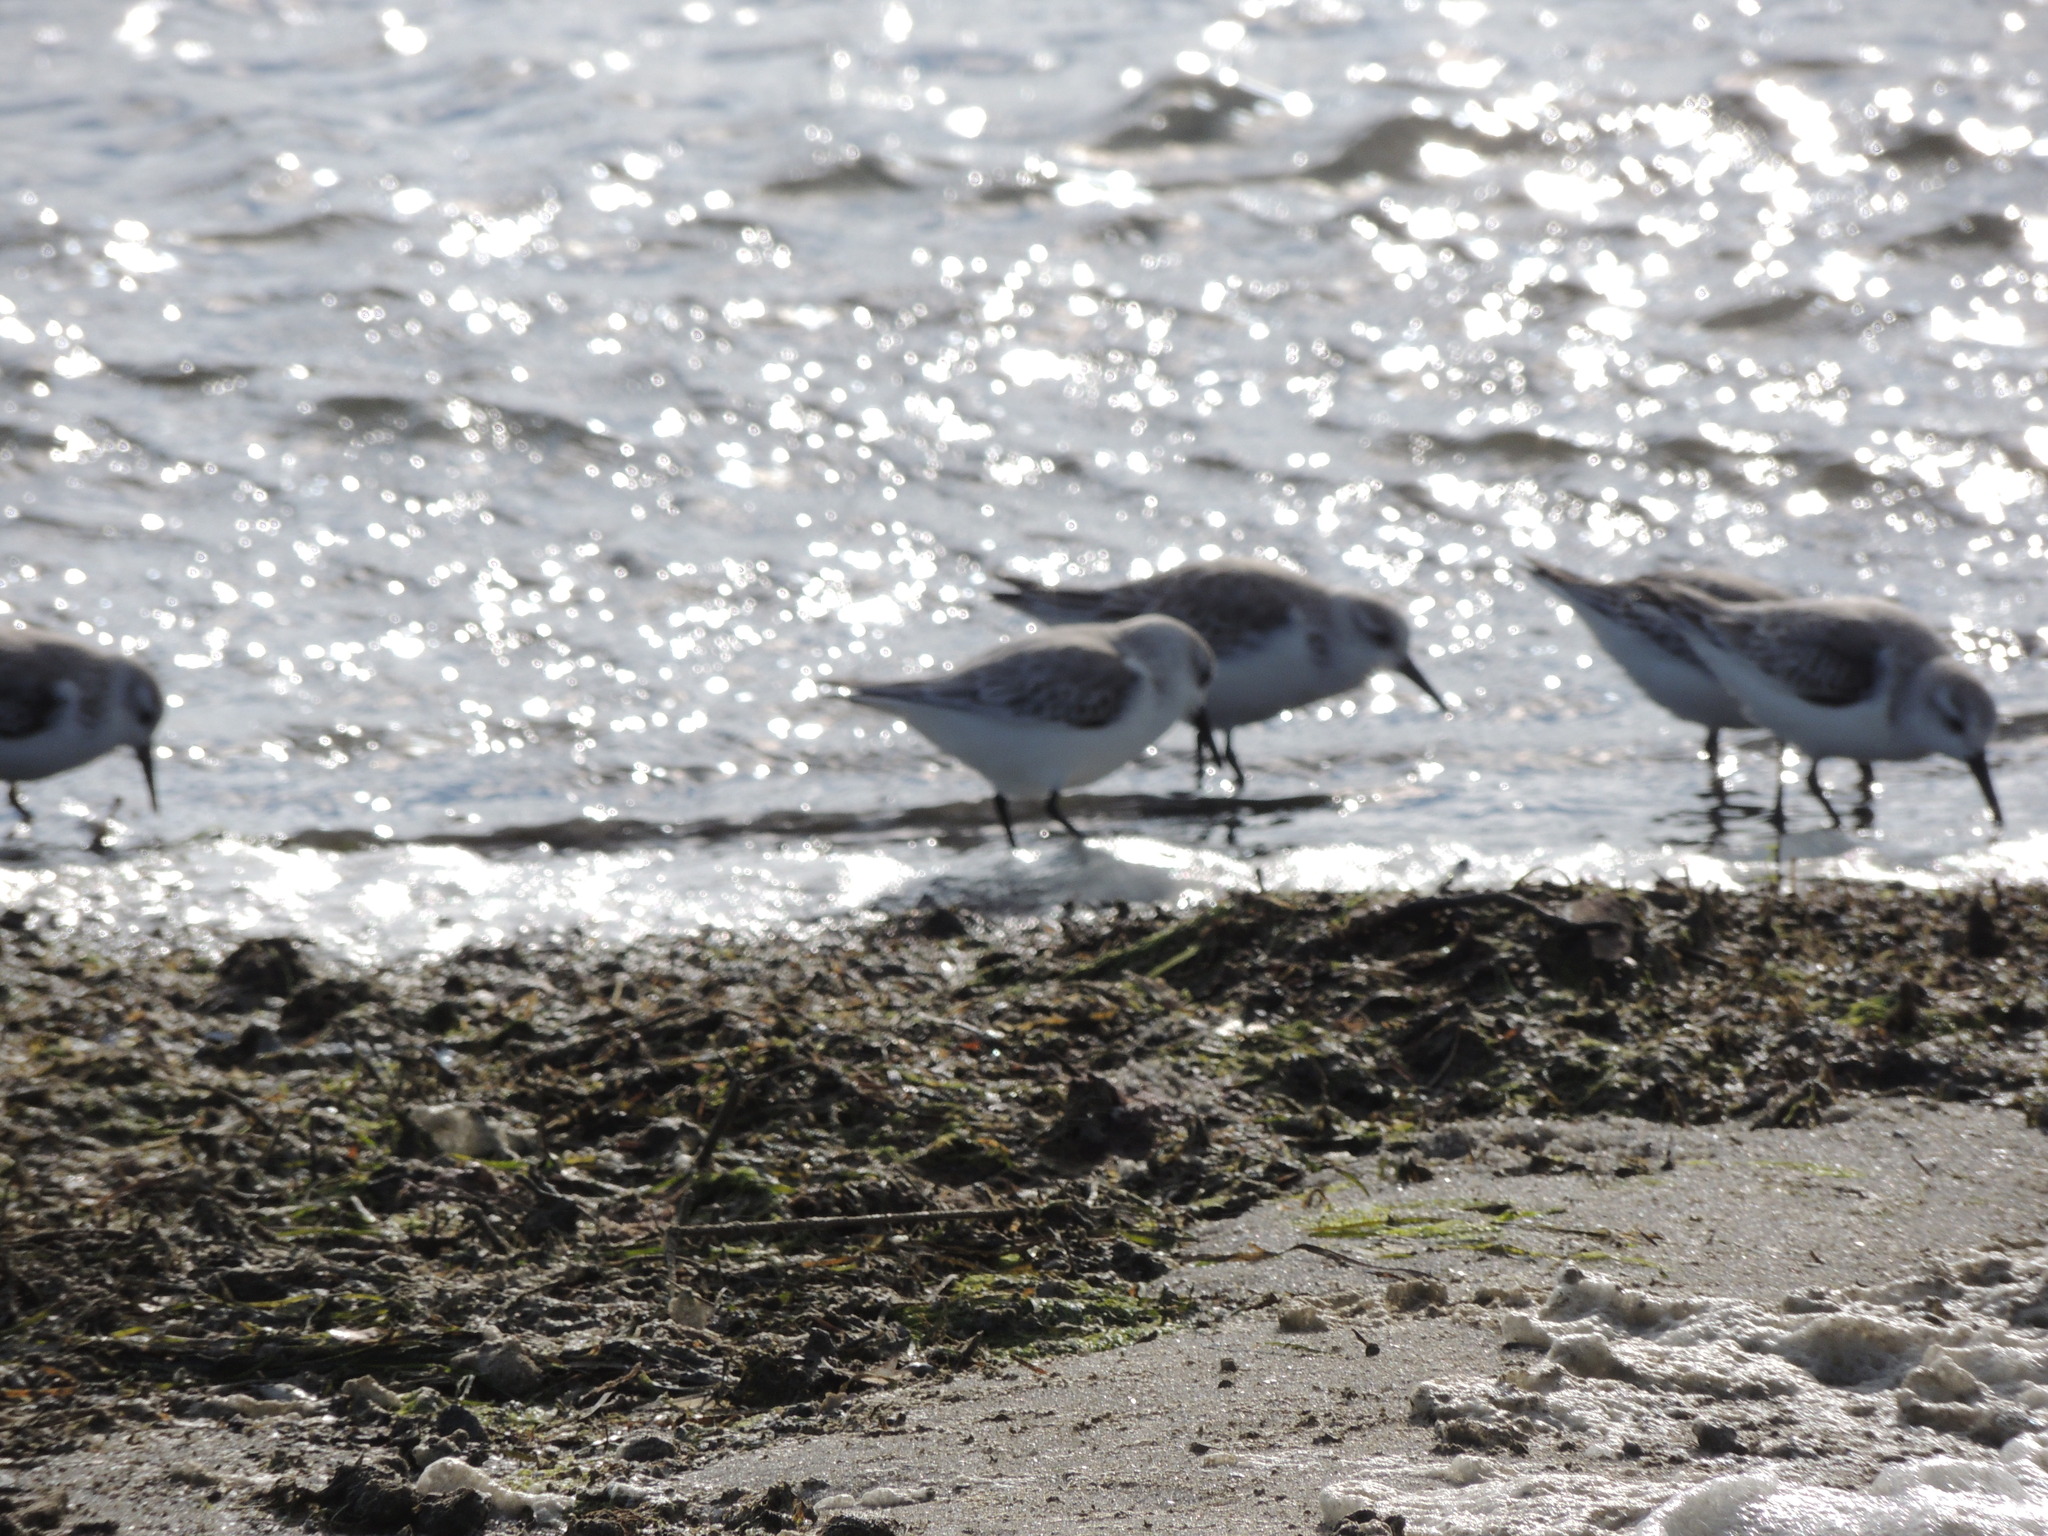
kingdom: Animalia
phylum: Chordata
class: Aves
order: Charadriiformes
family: Scolopacidae
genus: Calidris
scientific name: Calidris alba
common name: Sanderling
